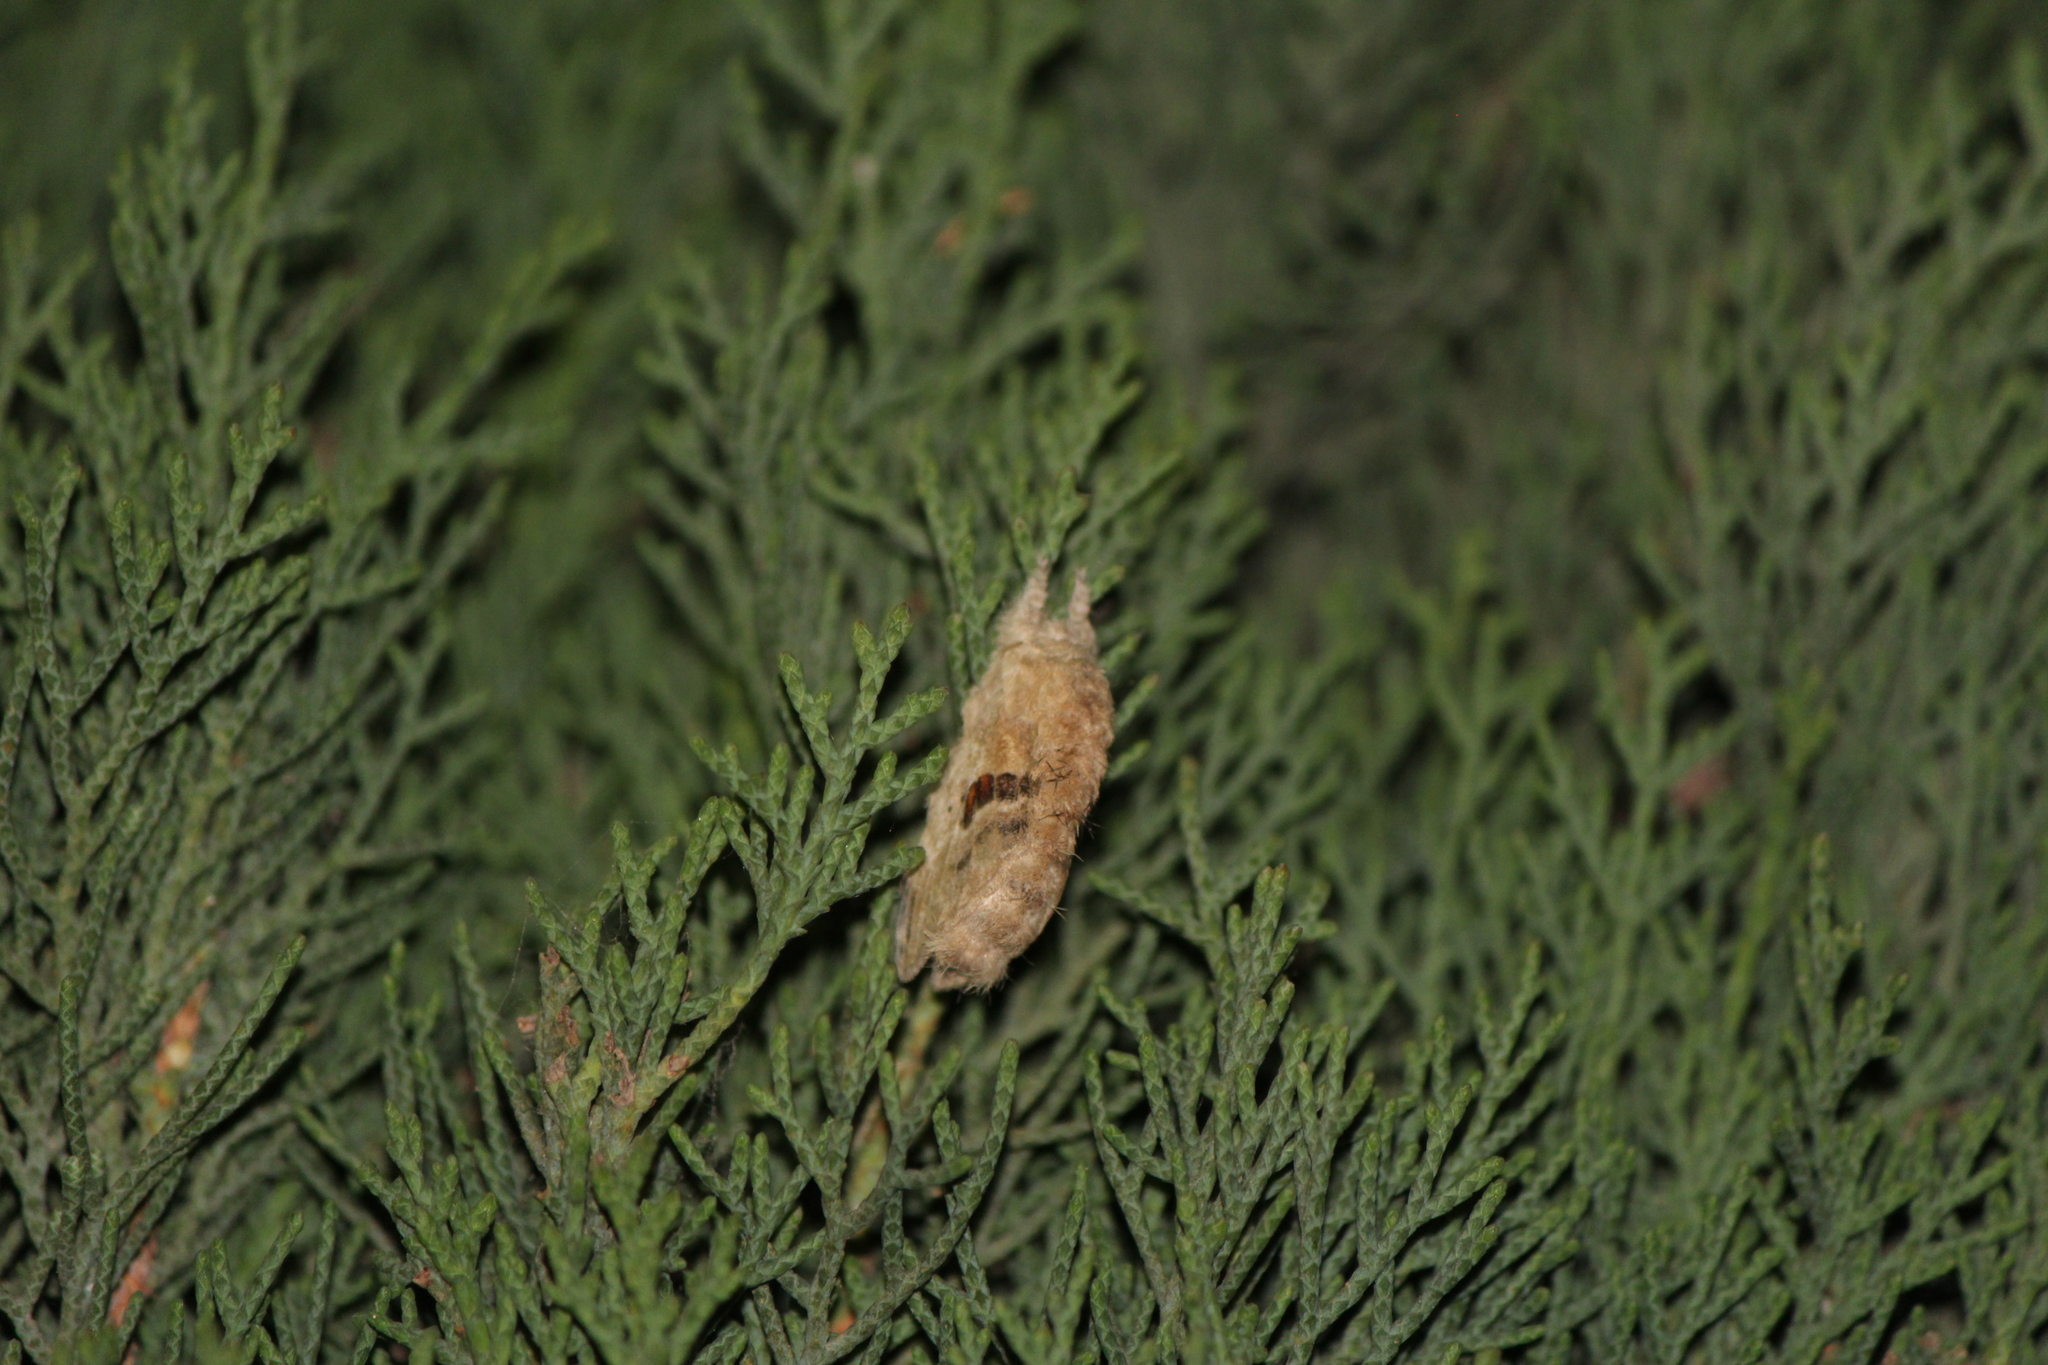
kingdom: Animalia
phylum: Arthropoda
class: Insecta
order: Lepidoptera
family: Lasiocampidae
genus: Tolype
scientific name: Tolype nana
